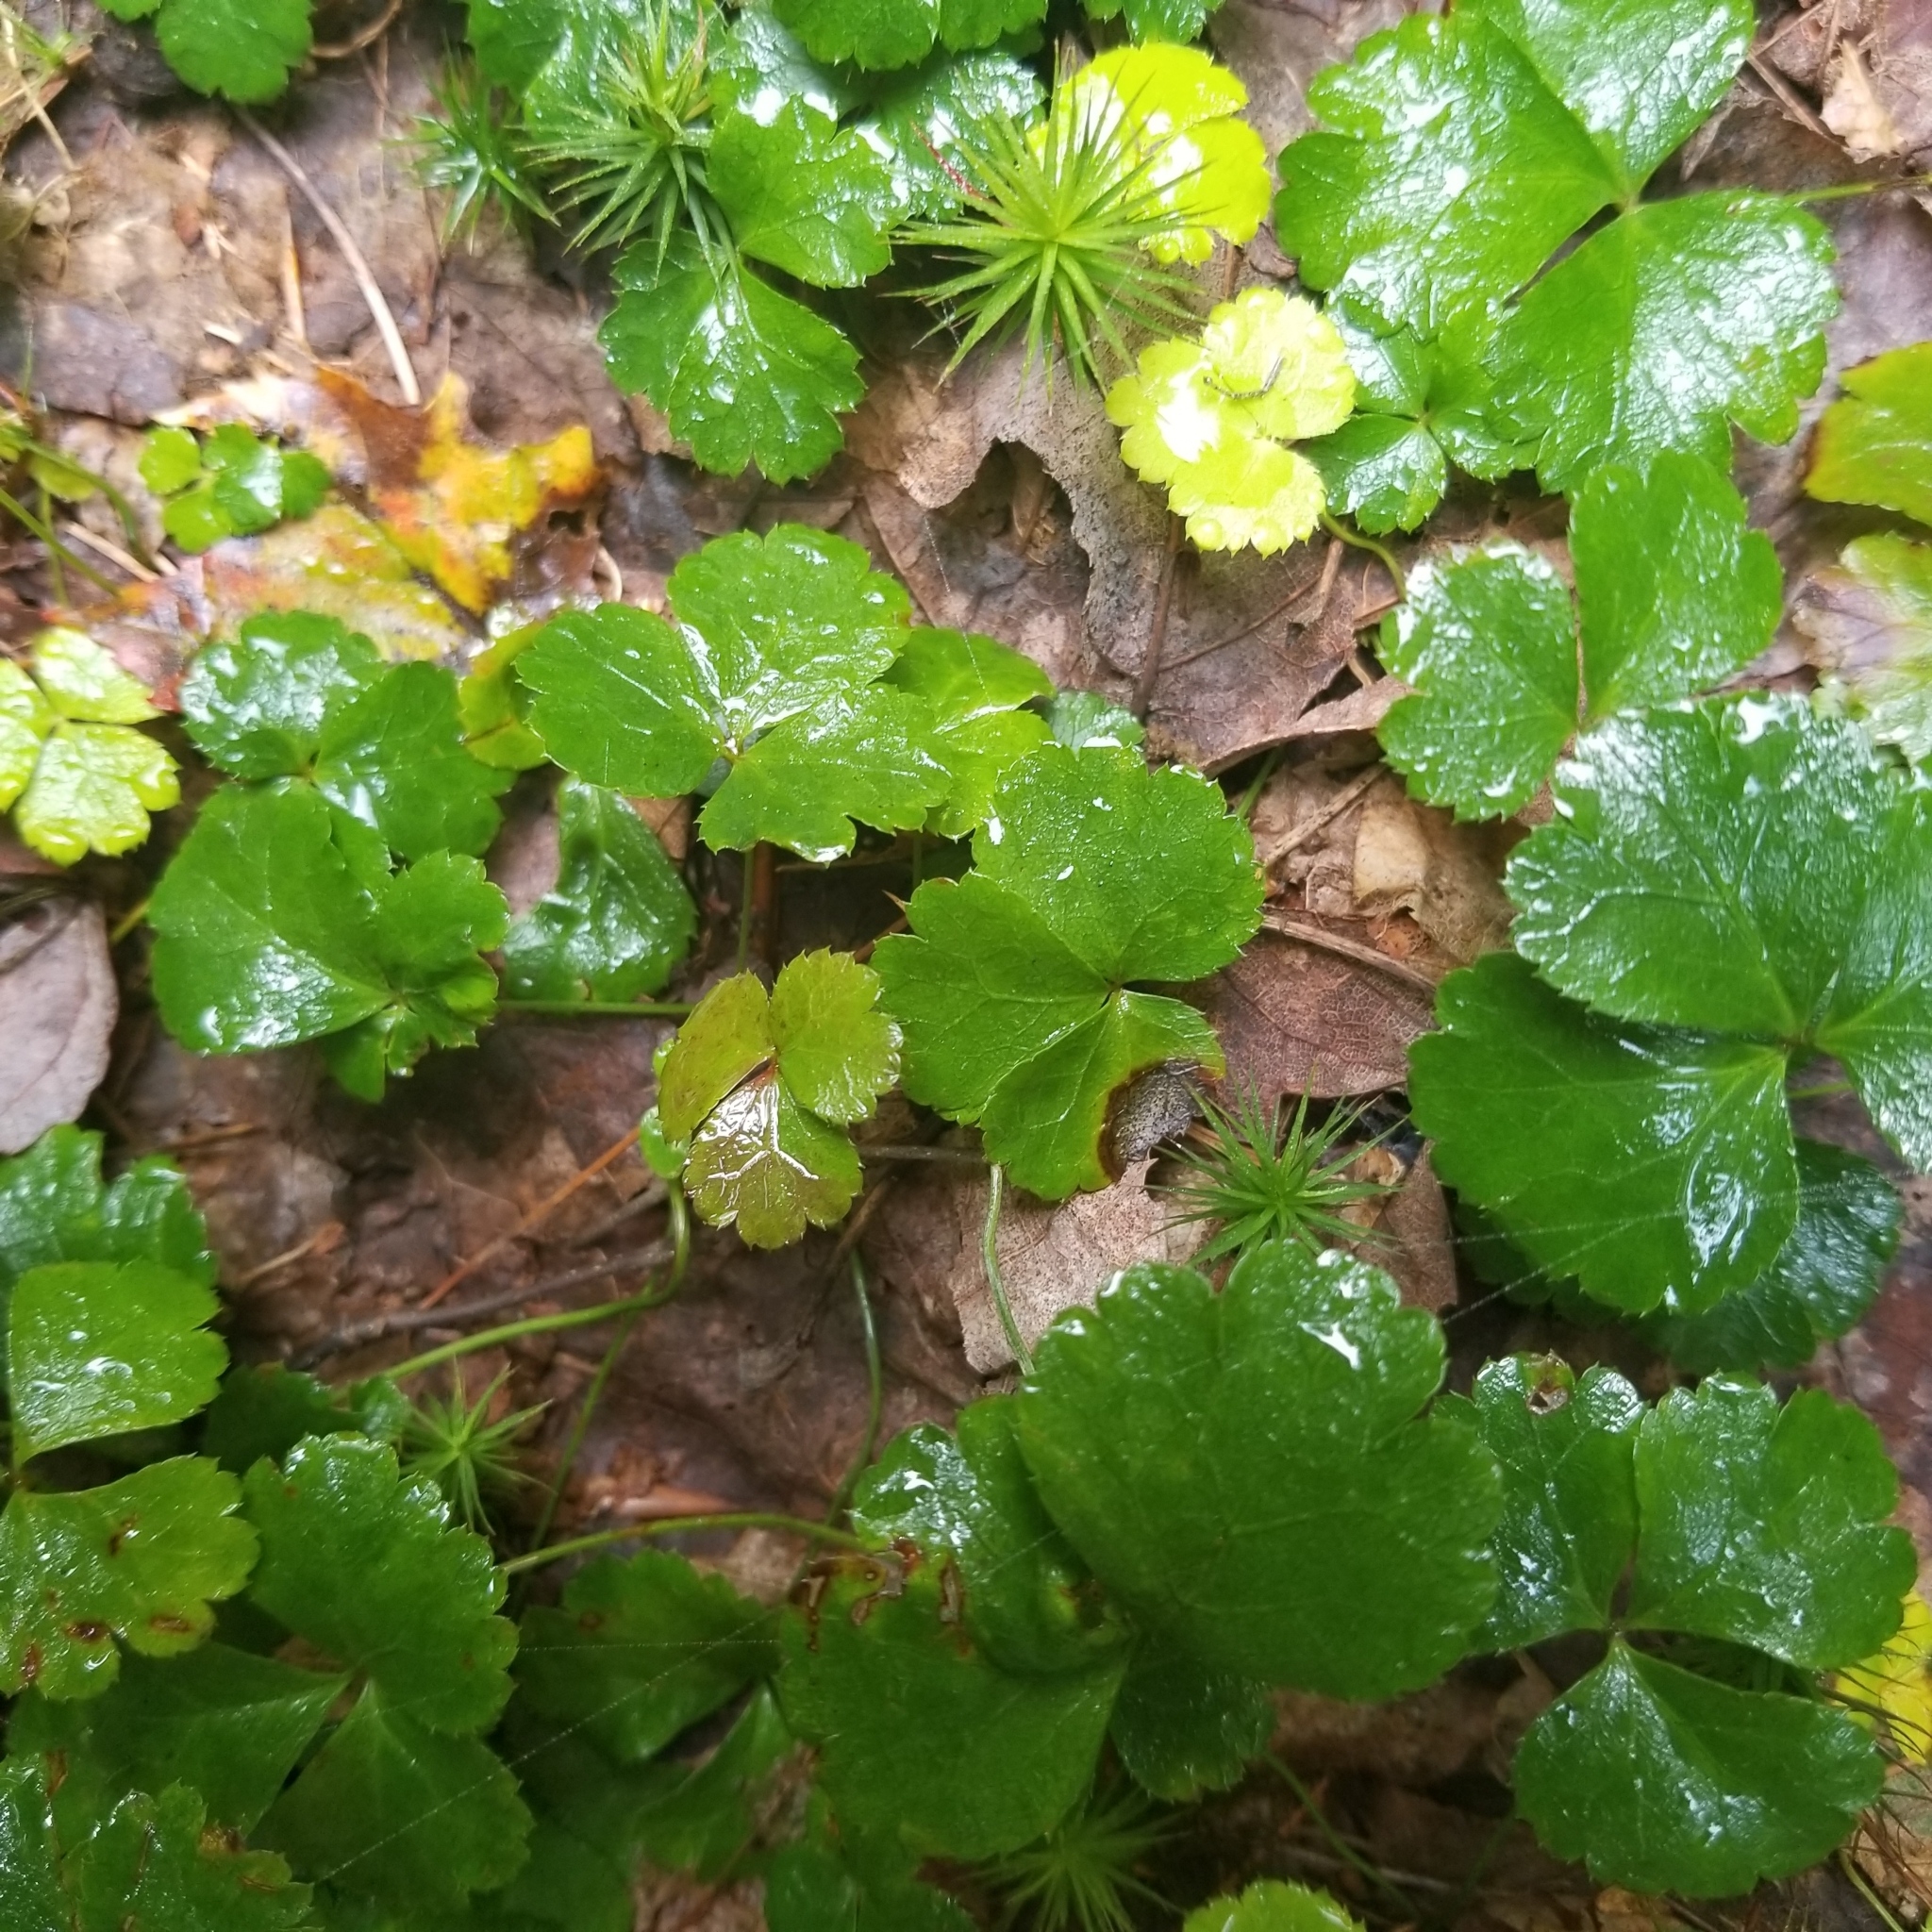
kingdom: Plantae
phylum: Tracheophyta
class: Magnoliopsida
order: Ranunculales
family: Ranunculaceae
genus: Coptis
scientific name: Coptis trifolia
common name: Canker-root
